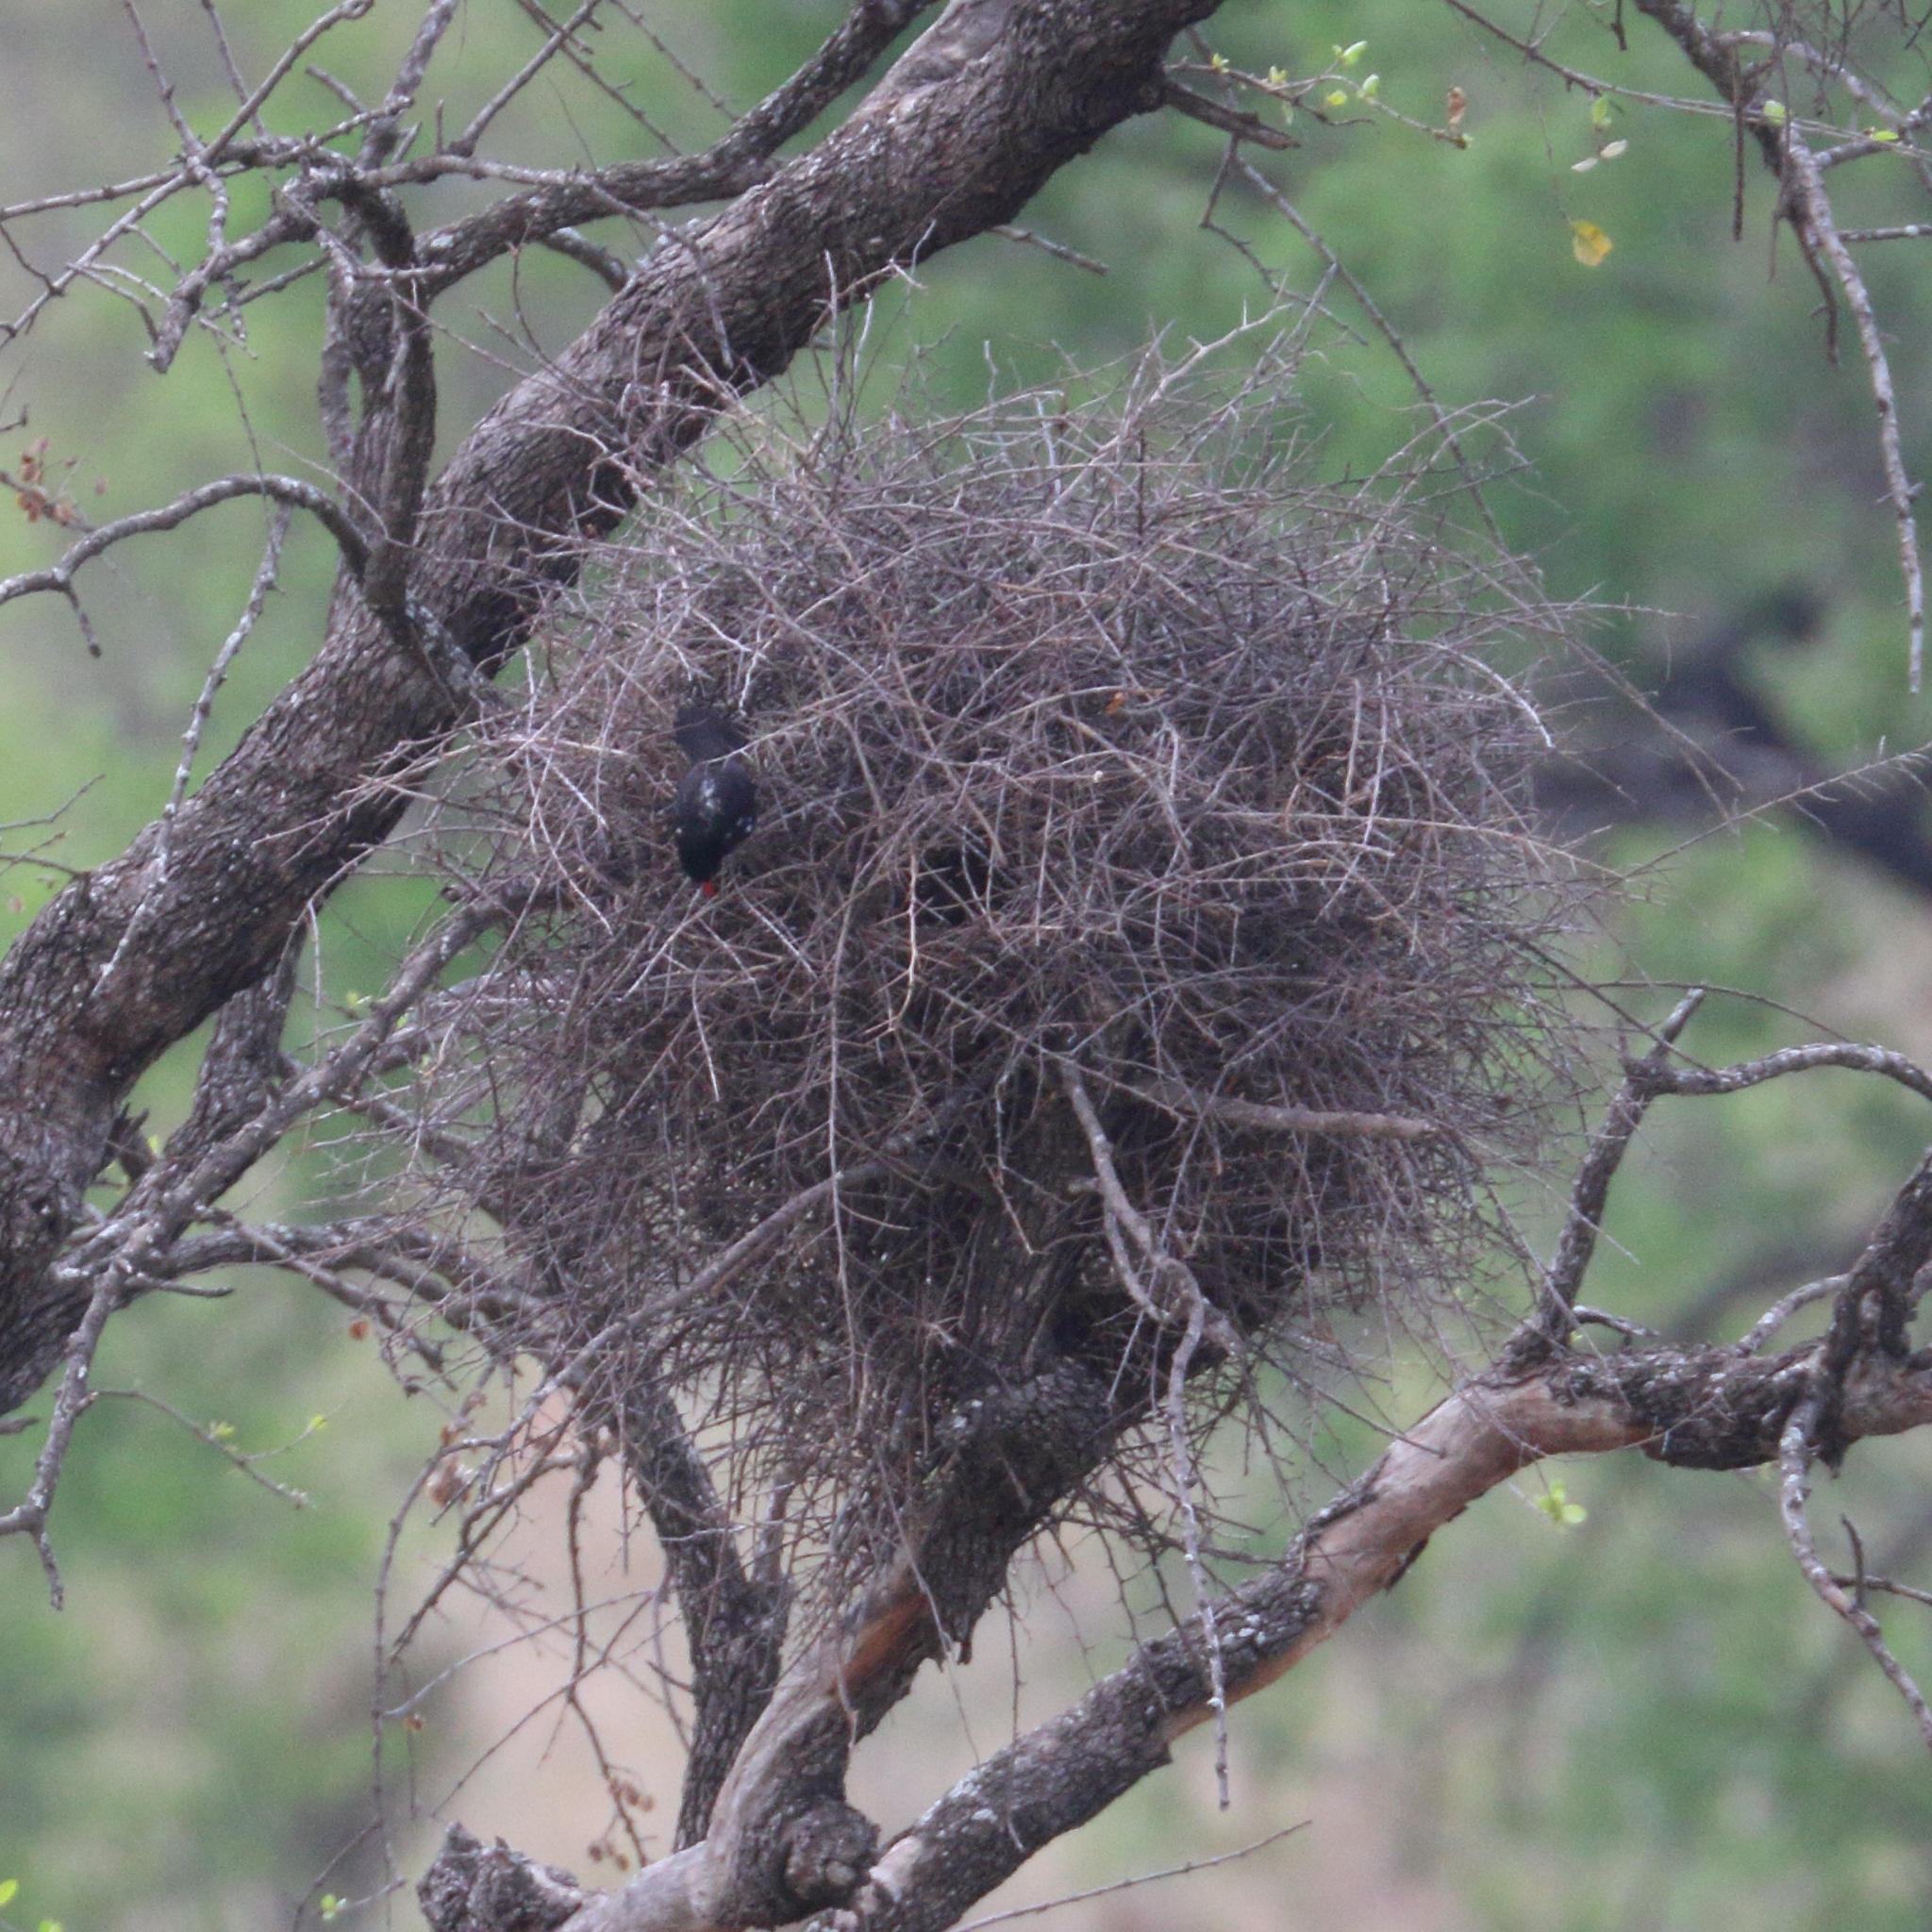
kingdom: Animalia
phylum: Chordata
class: Aves
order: Passeriformes
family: Ploceidae
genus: Bubalornis
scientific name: Bubalornis niger
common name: Red-billed buffalo weaver
